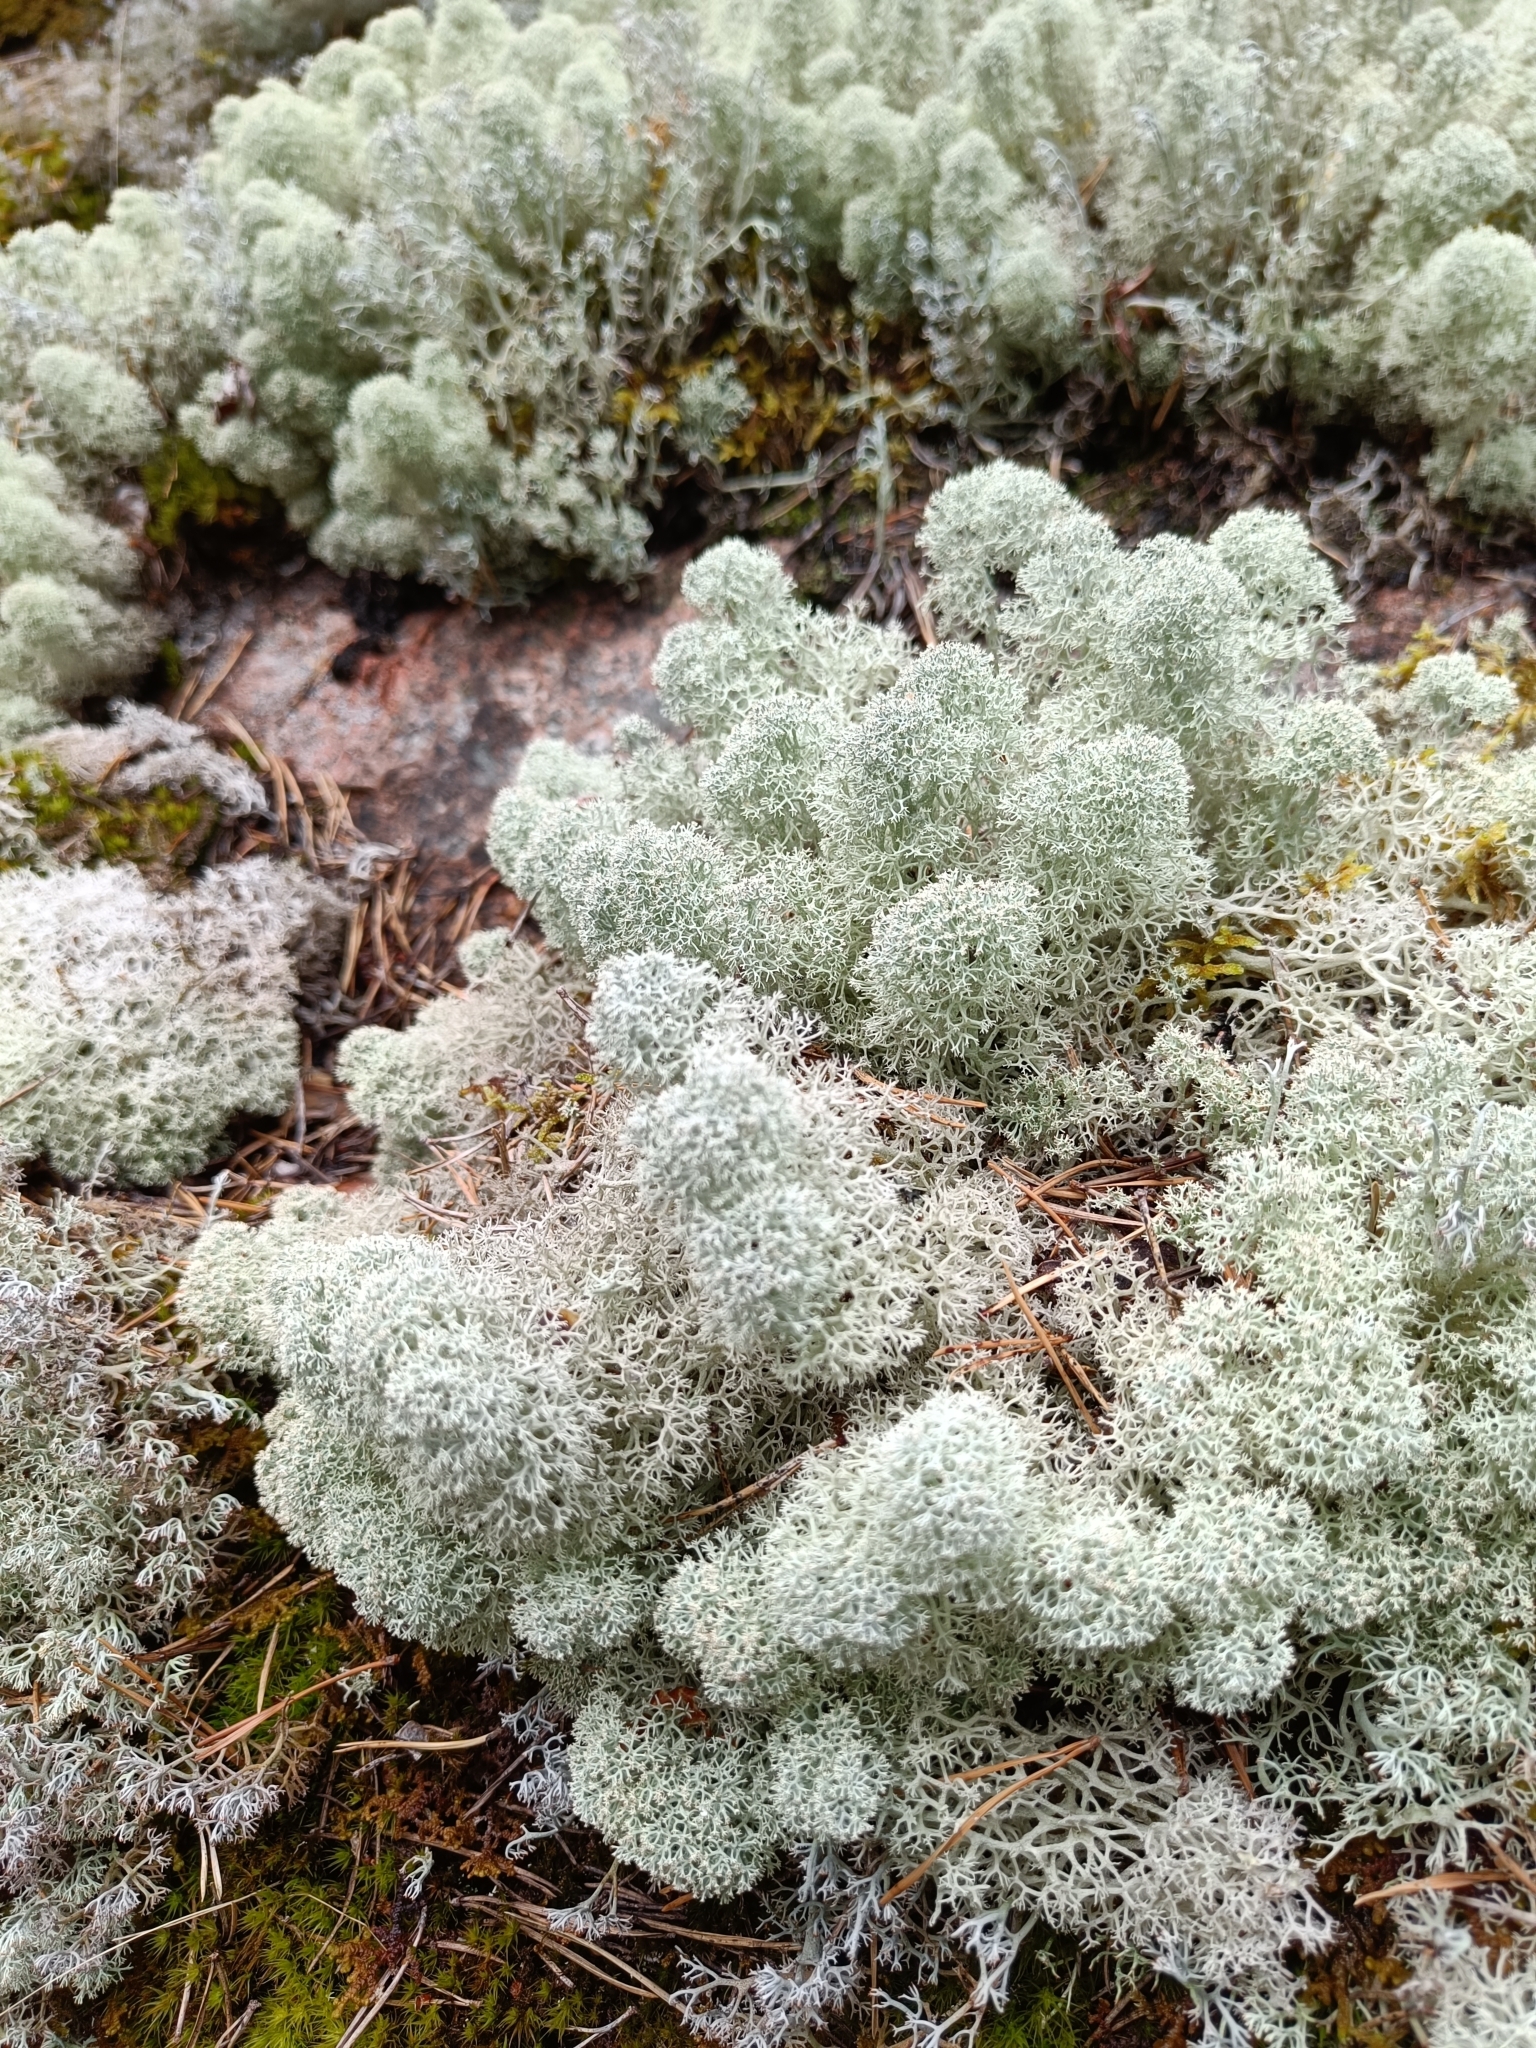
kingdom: Fungi
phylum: Ascomycota
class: Lecanoromycetes
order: Lecanorales
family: Cladoniaceae
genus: Cladonia
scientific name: Cladonia stellaris
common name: Star-tipped reindeer lichen
